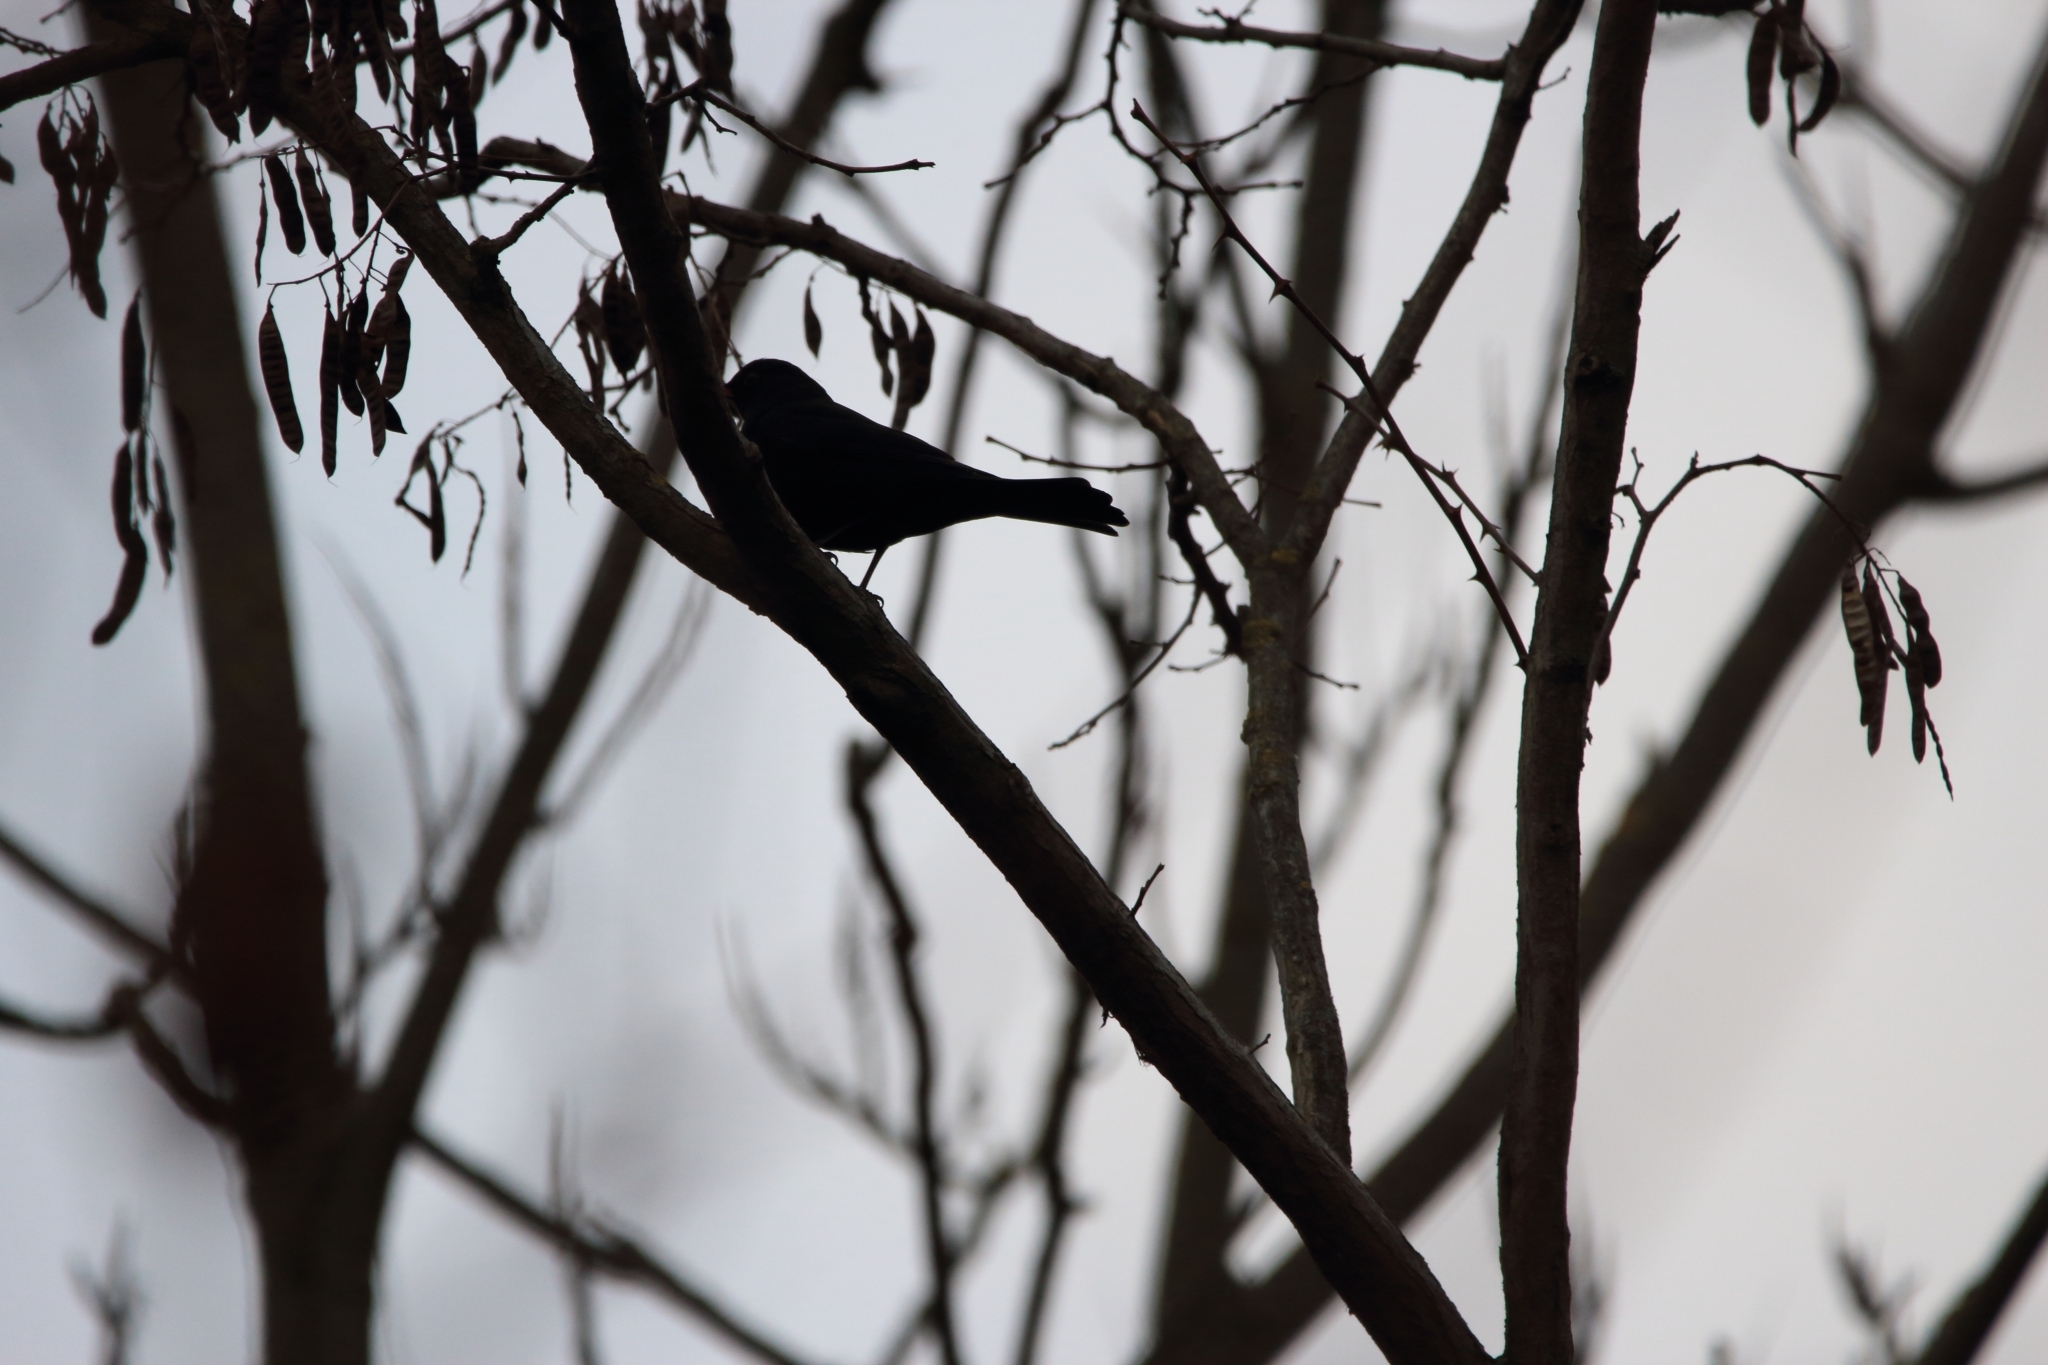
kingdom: Animalia
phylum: Chordata
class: Aves
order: Passeriformes
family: Turdidae
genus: Turdus
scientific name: Turdus merula
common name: Common blackbird
